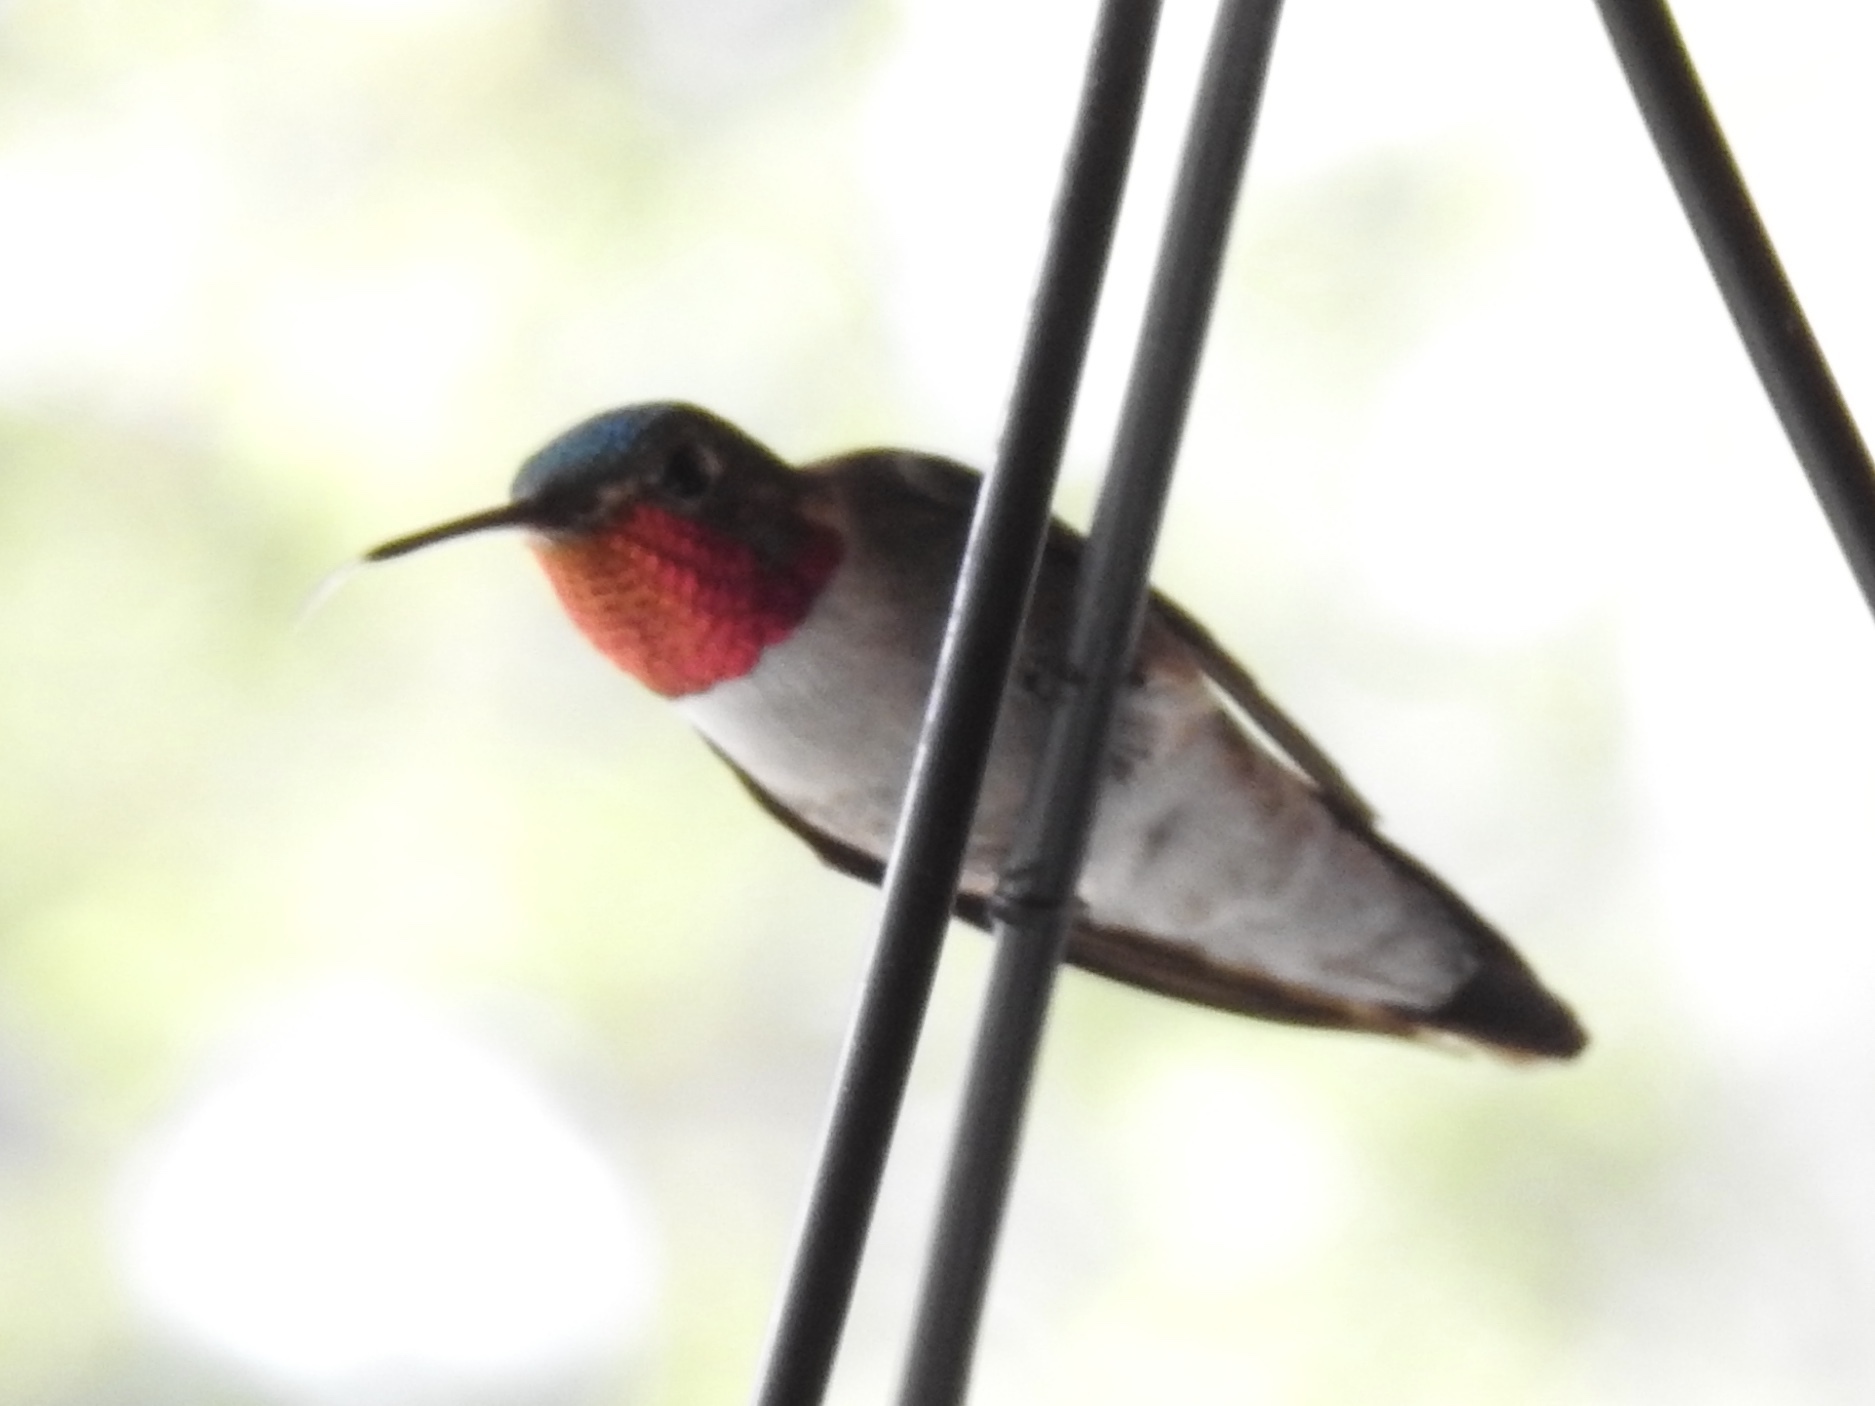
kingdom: Animalia
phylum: Chordata
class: Aves
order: Apodiformes
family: Trochilidae
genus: Selasphorus
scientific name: Selasphorus platycercus
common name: Broad-tailed hummingbird
